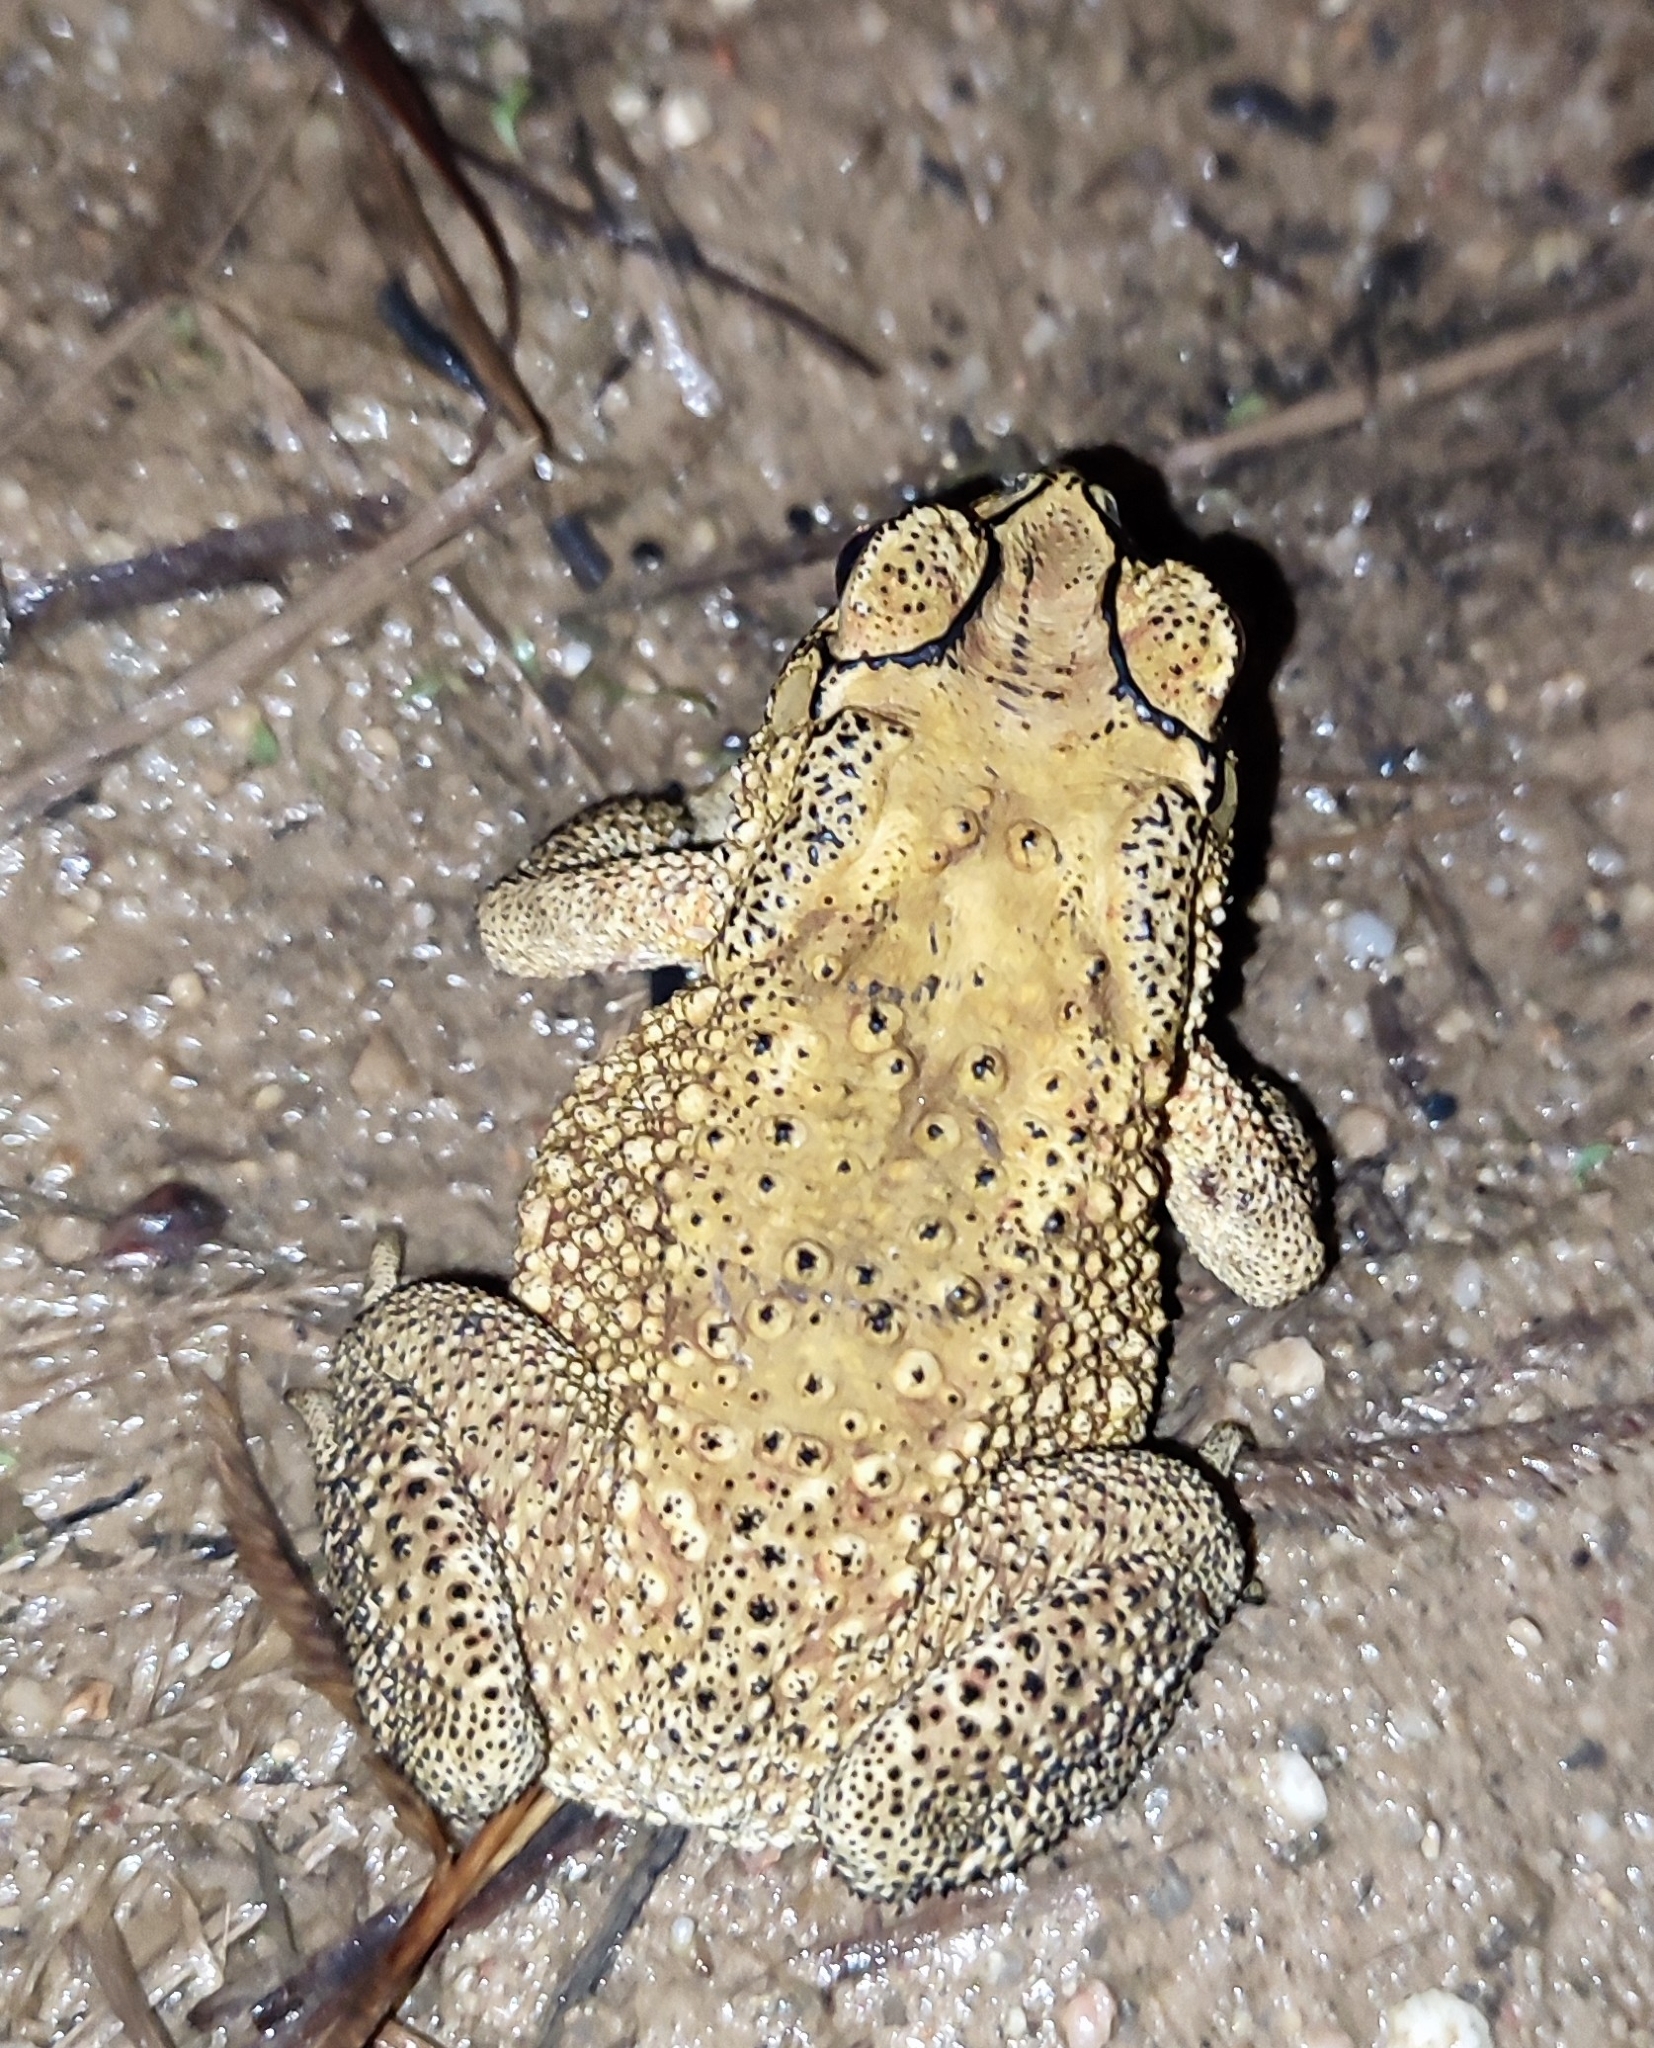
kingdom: Animalia
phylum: Chordata
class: Amphibia
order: Anura
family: Bufonidae
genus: Duttaphrynus
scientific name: Duttaphrynus melanostictus
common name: Common sunda toad
